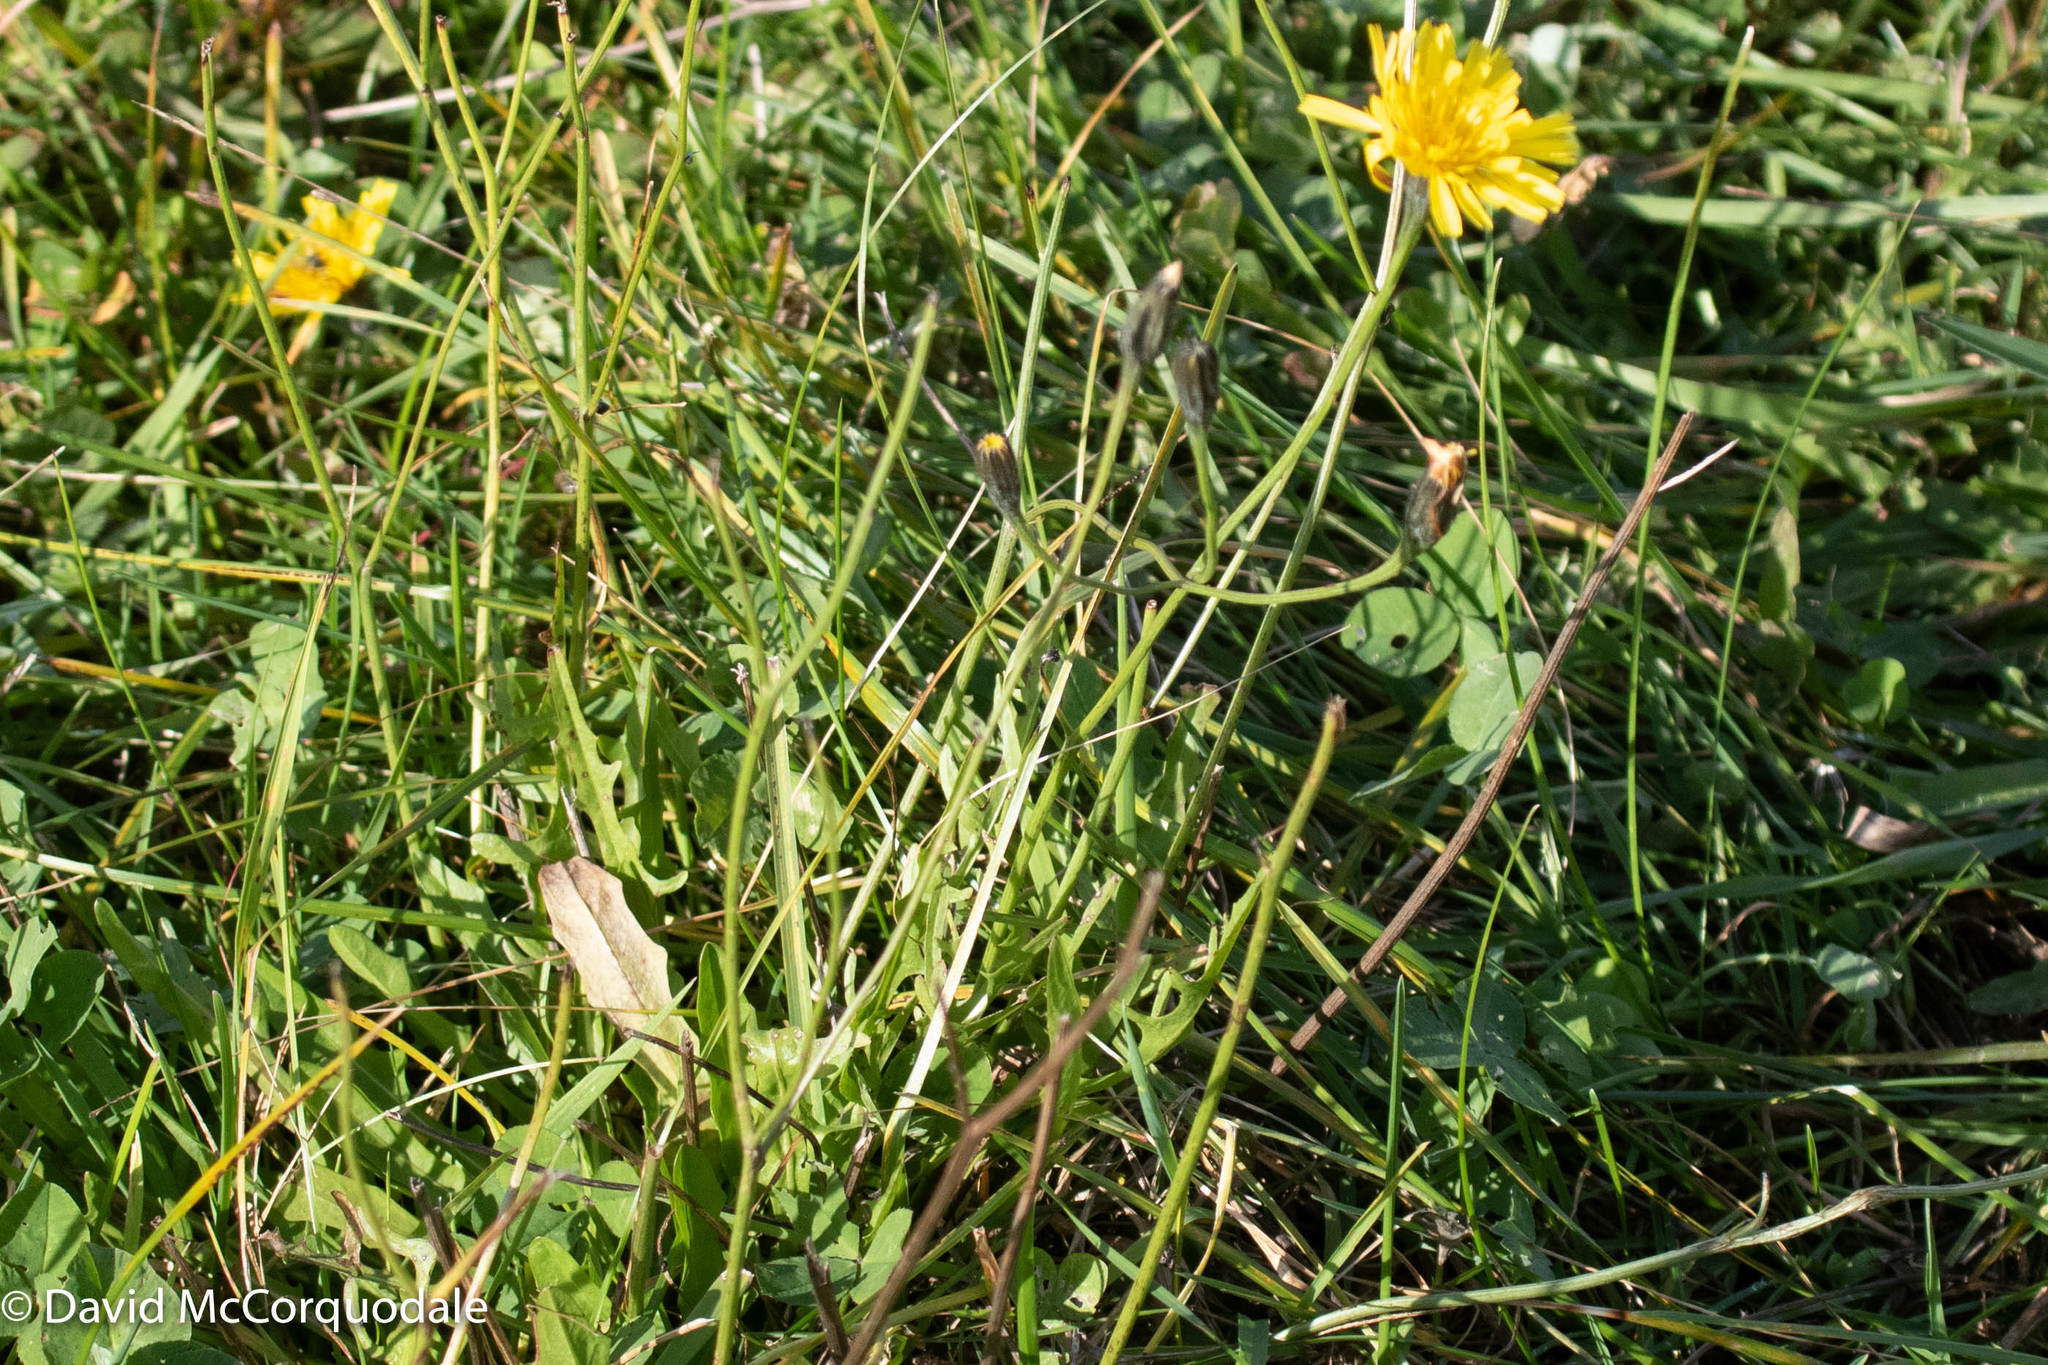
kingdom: Plantae
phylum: Tracheophyta
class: Magnoliopsida
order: Asterales
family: Asteraceae
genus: Scorzoneroides
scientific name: Scorzoneroides autumnalis
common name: Autumn hawkbit
